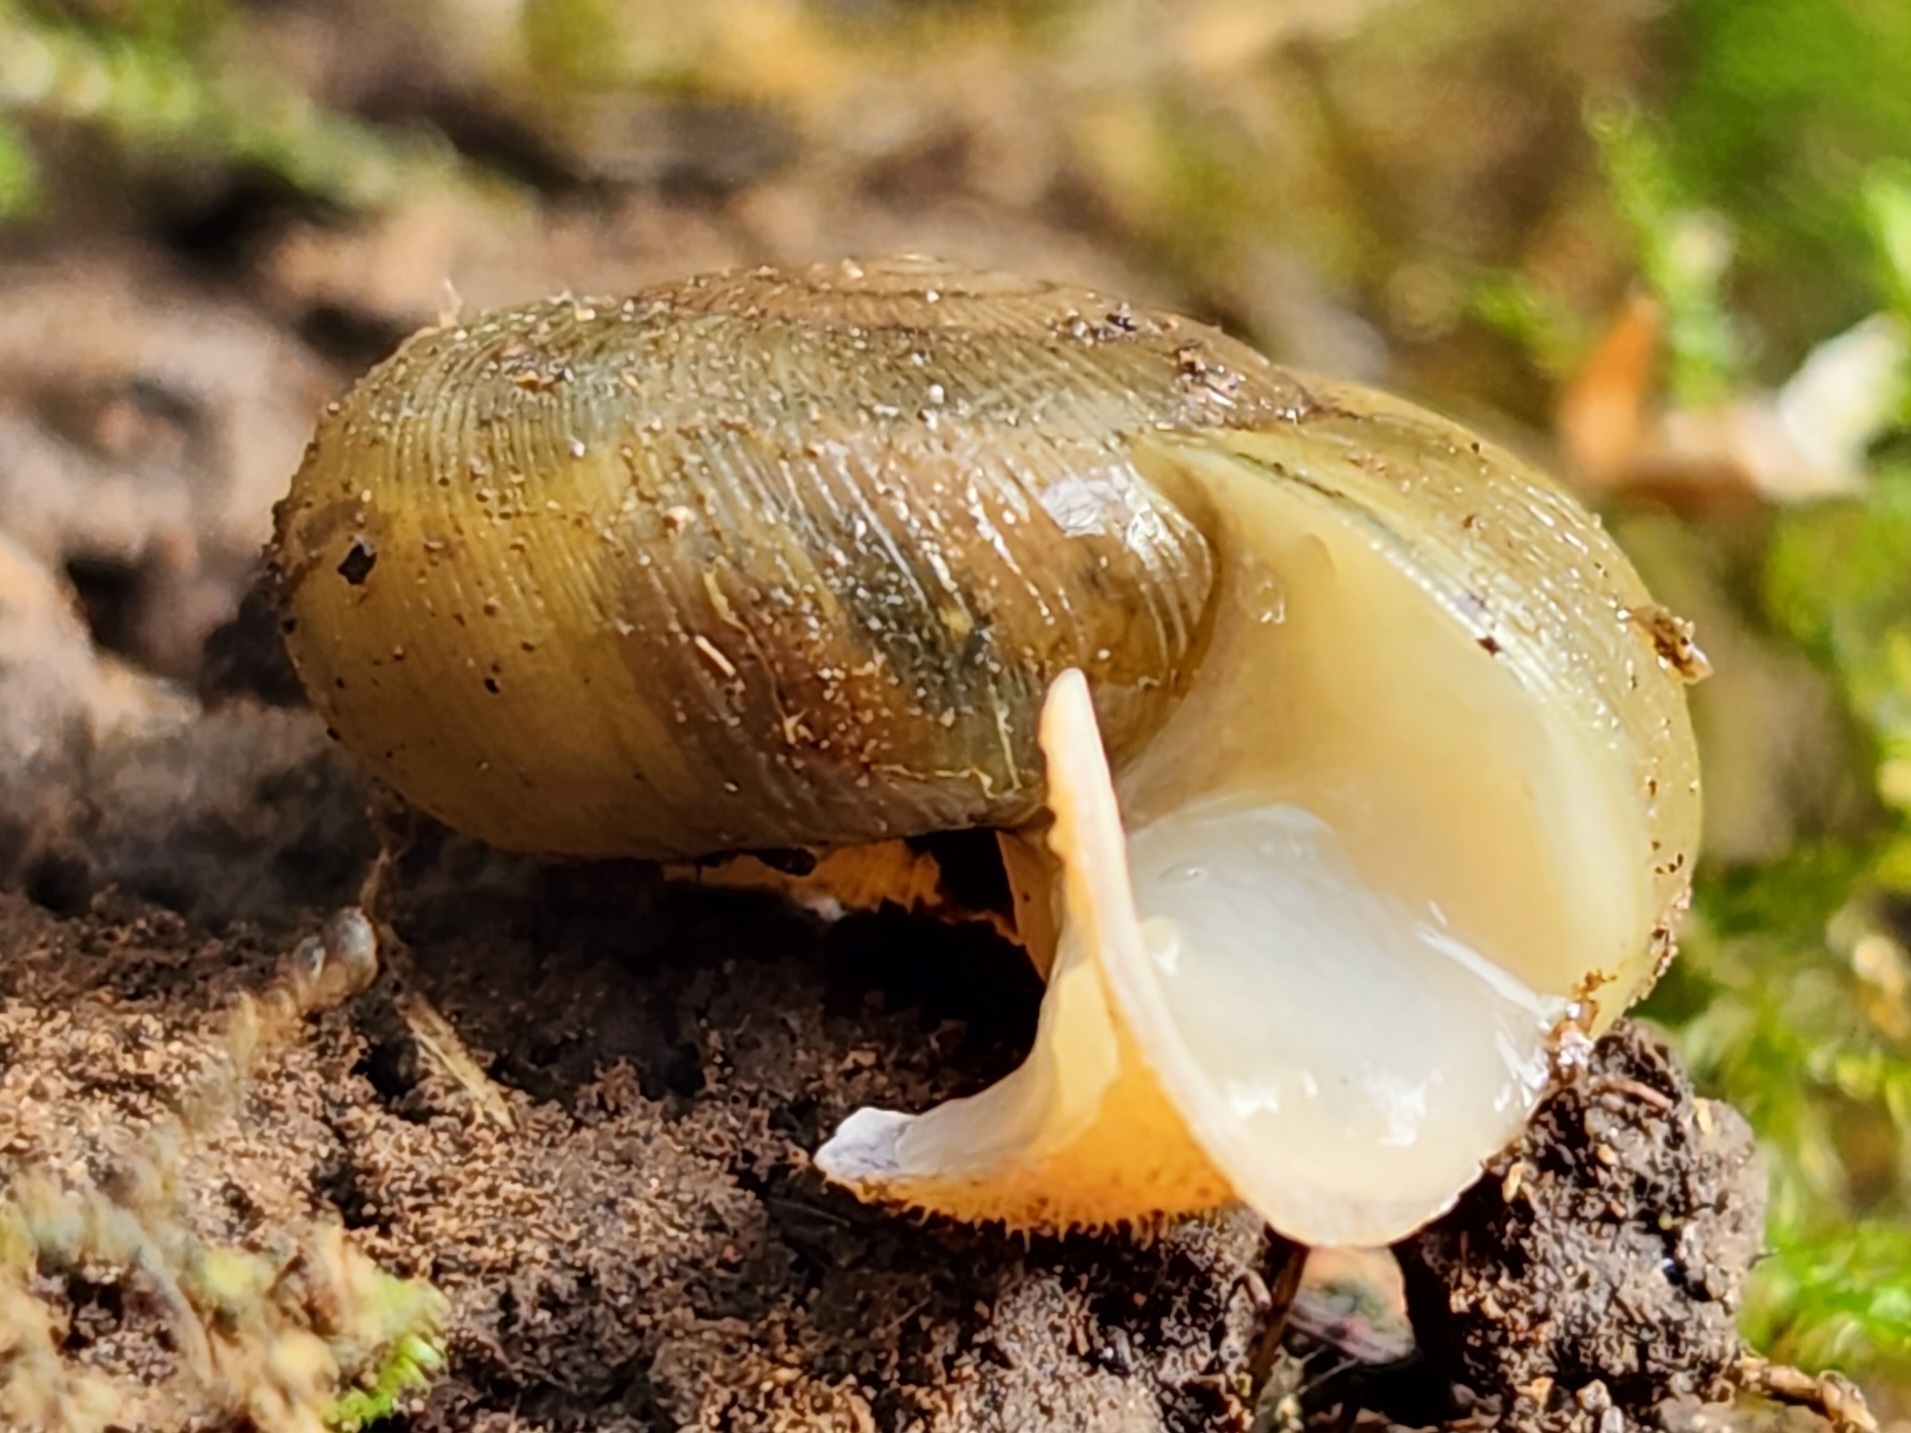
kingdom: Animalia
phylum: Mollusca
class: Gastropoda
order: Stylommatophora
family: Haplotrematidae
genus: Ancotrema
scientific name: Ancotrema sportella
